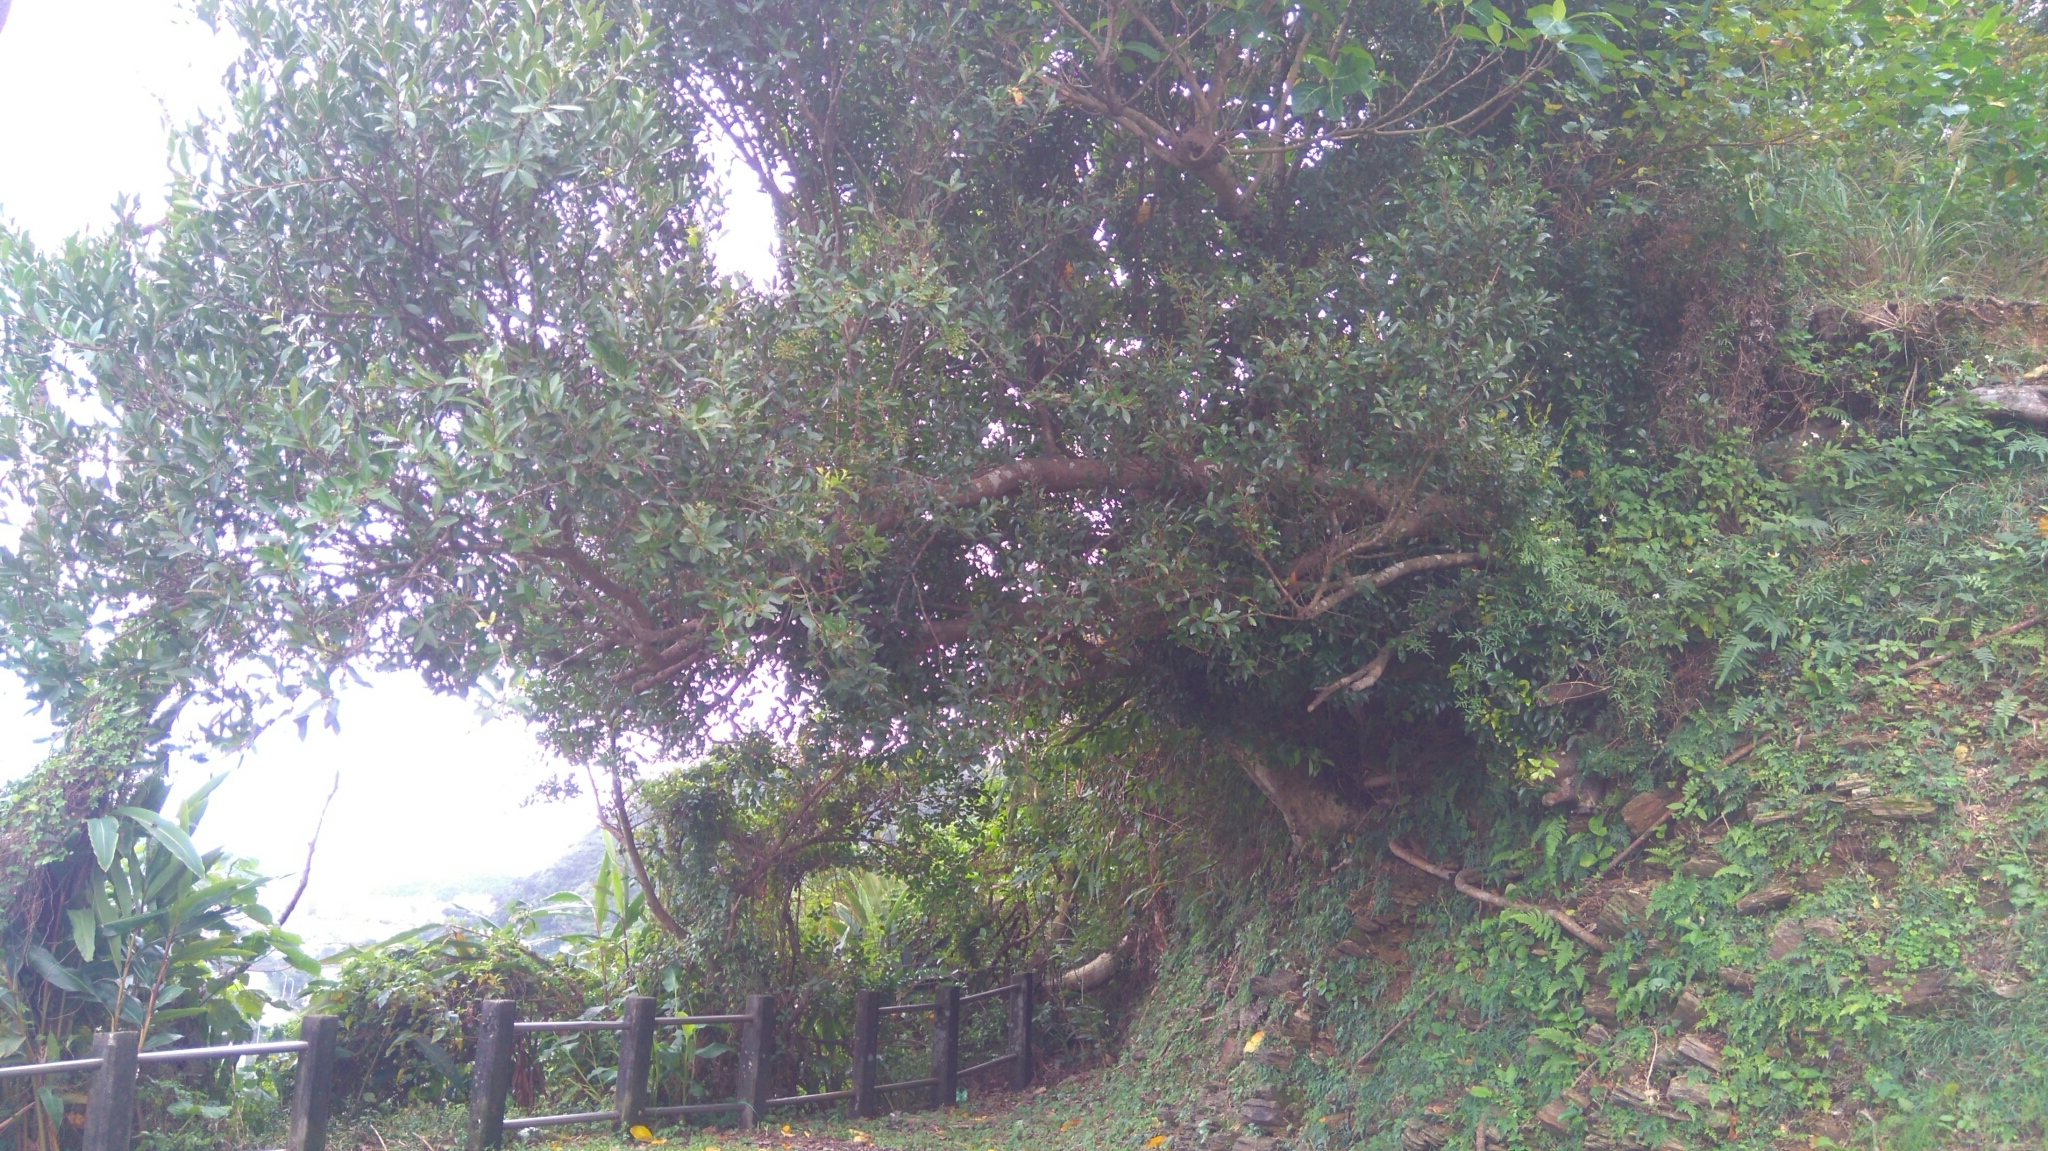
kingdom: Plantae
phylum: Tracheophyta
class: Magnoliopsida
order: Malpighiales
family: Salicaceae
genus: Scolopia
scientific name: Scolopia oldhamii
